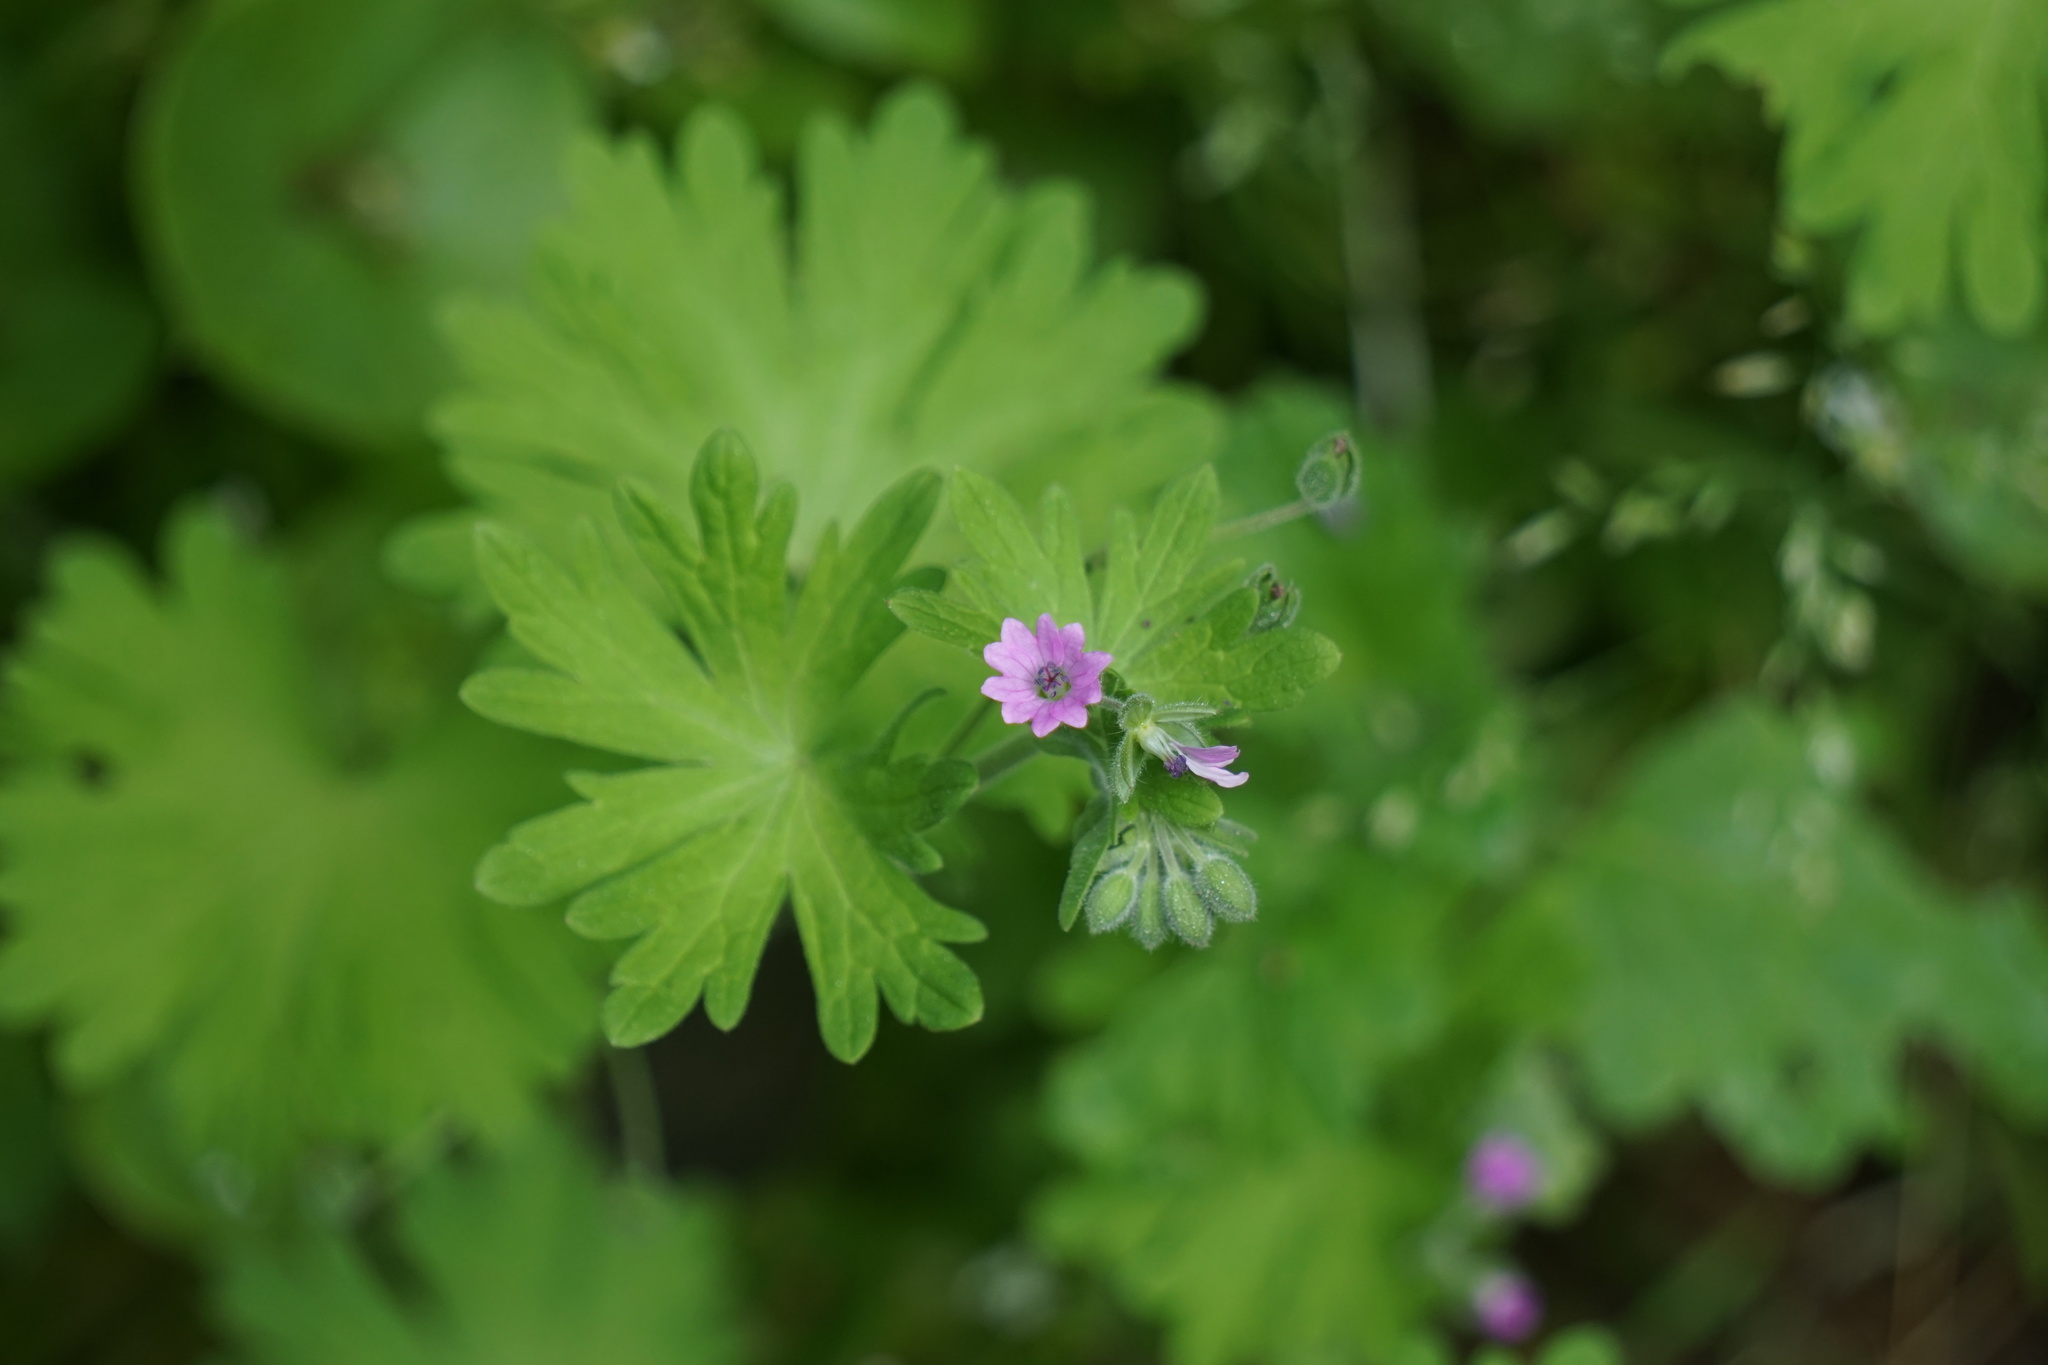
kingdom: Plantae
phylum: Tracheophyta
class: Magnoliopsida
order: Geraniales
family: Geraniaceae
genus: Geranium
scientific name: Geranium molle
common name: Dove's-foot crane's-bill
